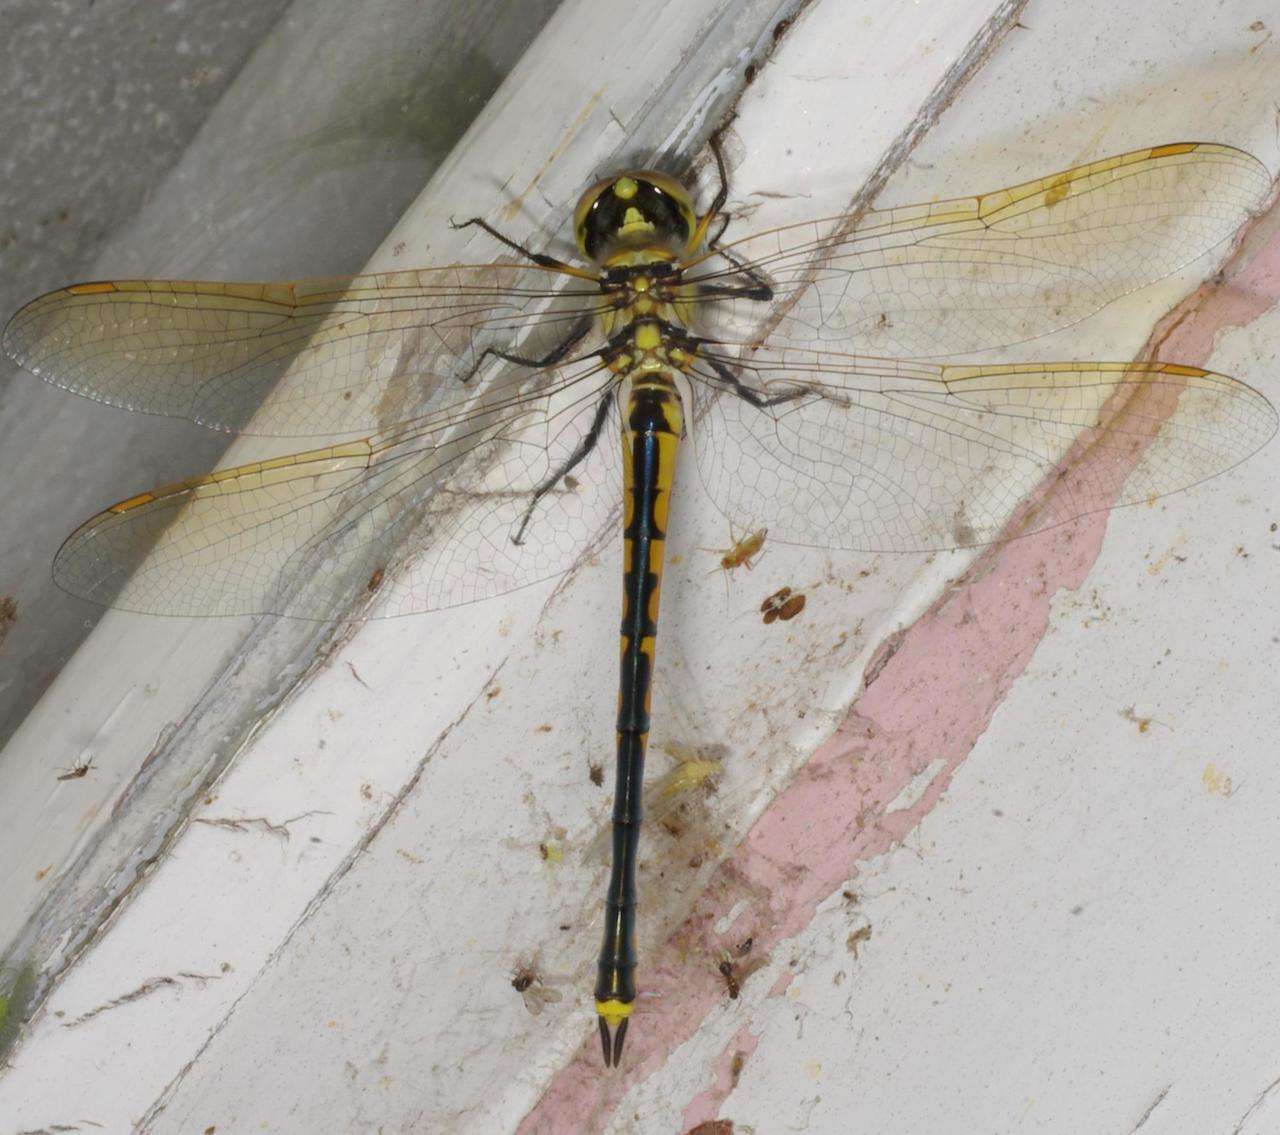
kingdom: Animalia
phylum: Arthropoda
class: Insecta
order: Odonata
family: Corduliidae
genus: Hemicordulia
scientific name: Hemicordulia tau
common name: Tau emerald
